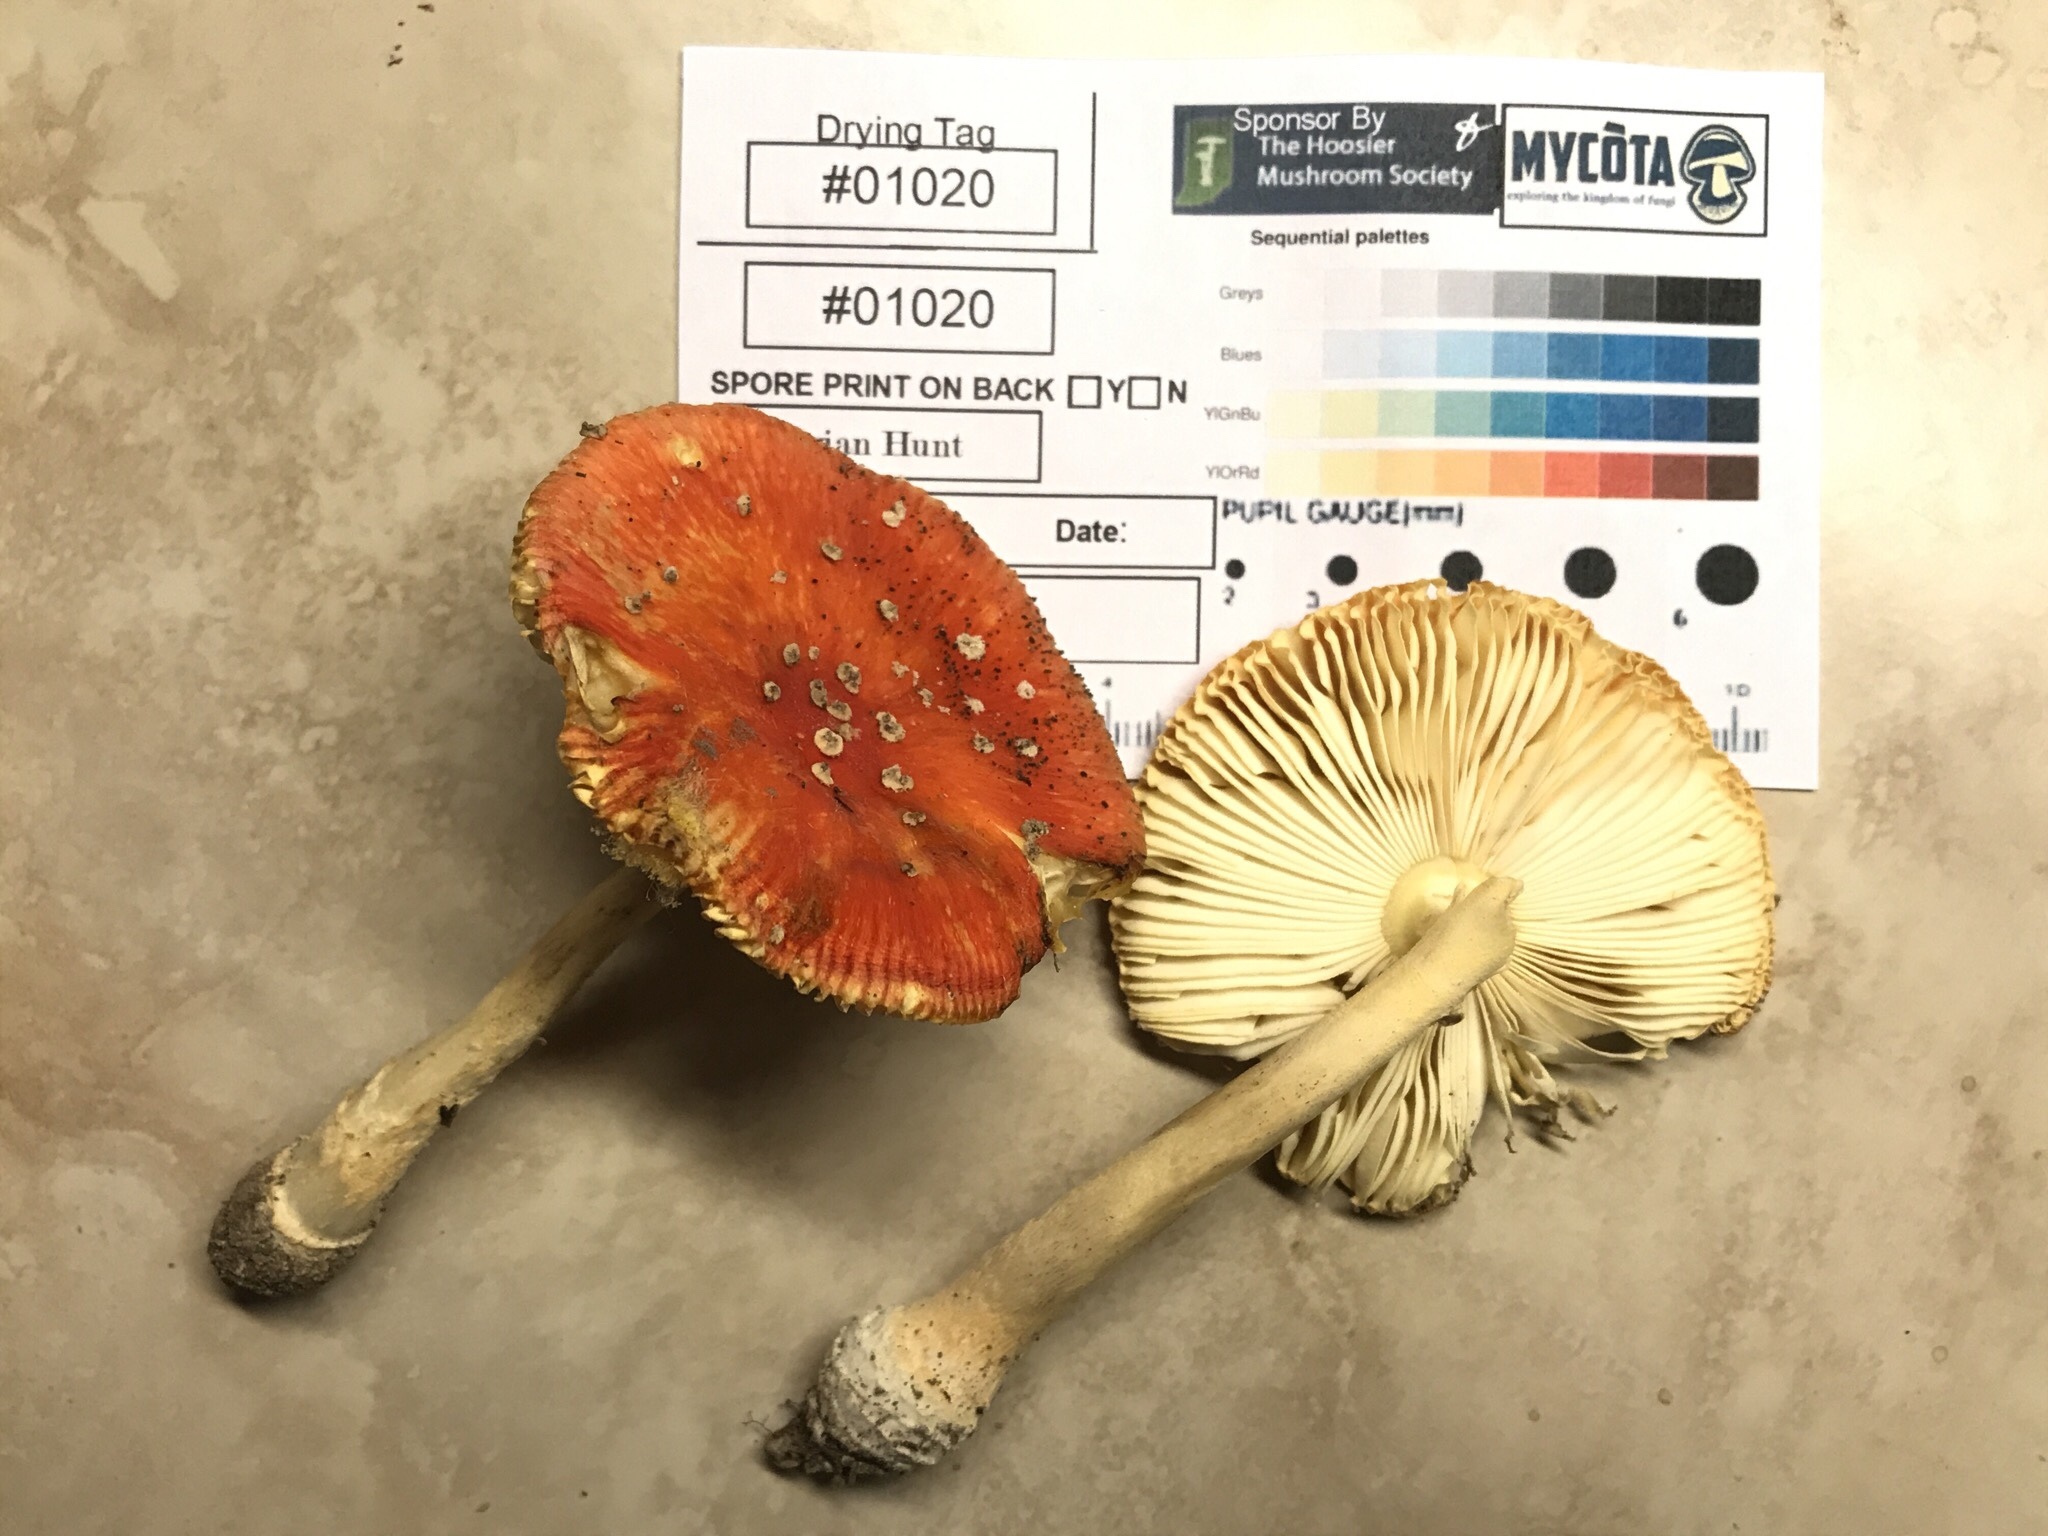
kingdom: Fungi
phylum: Basidiomycota
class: Agaricomycetes
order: Agaricales
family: Amanitaceae
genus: Amanita
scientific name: Amanita parcivolvata
